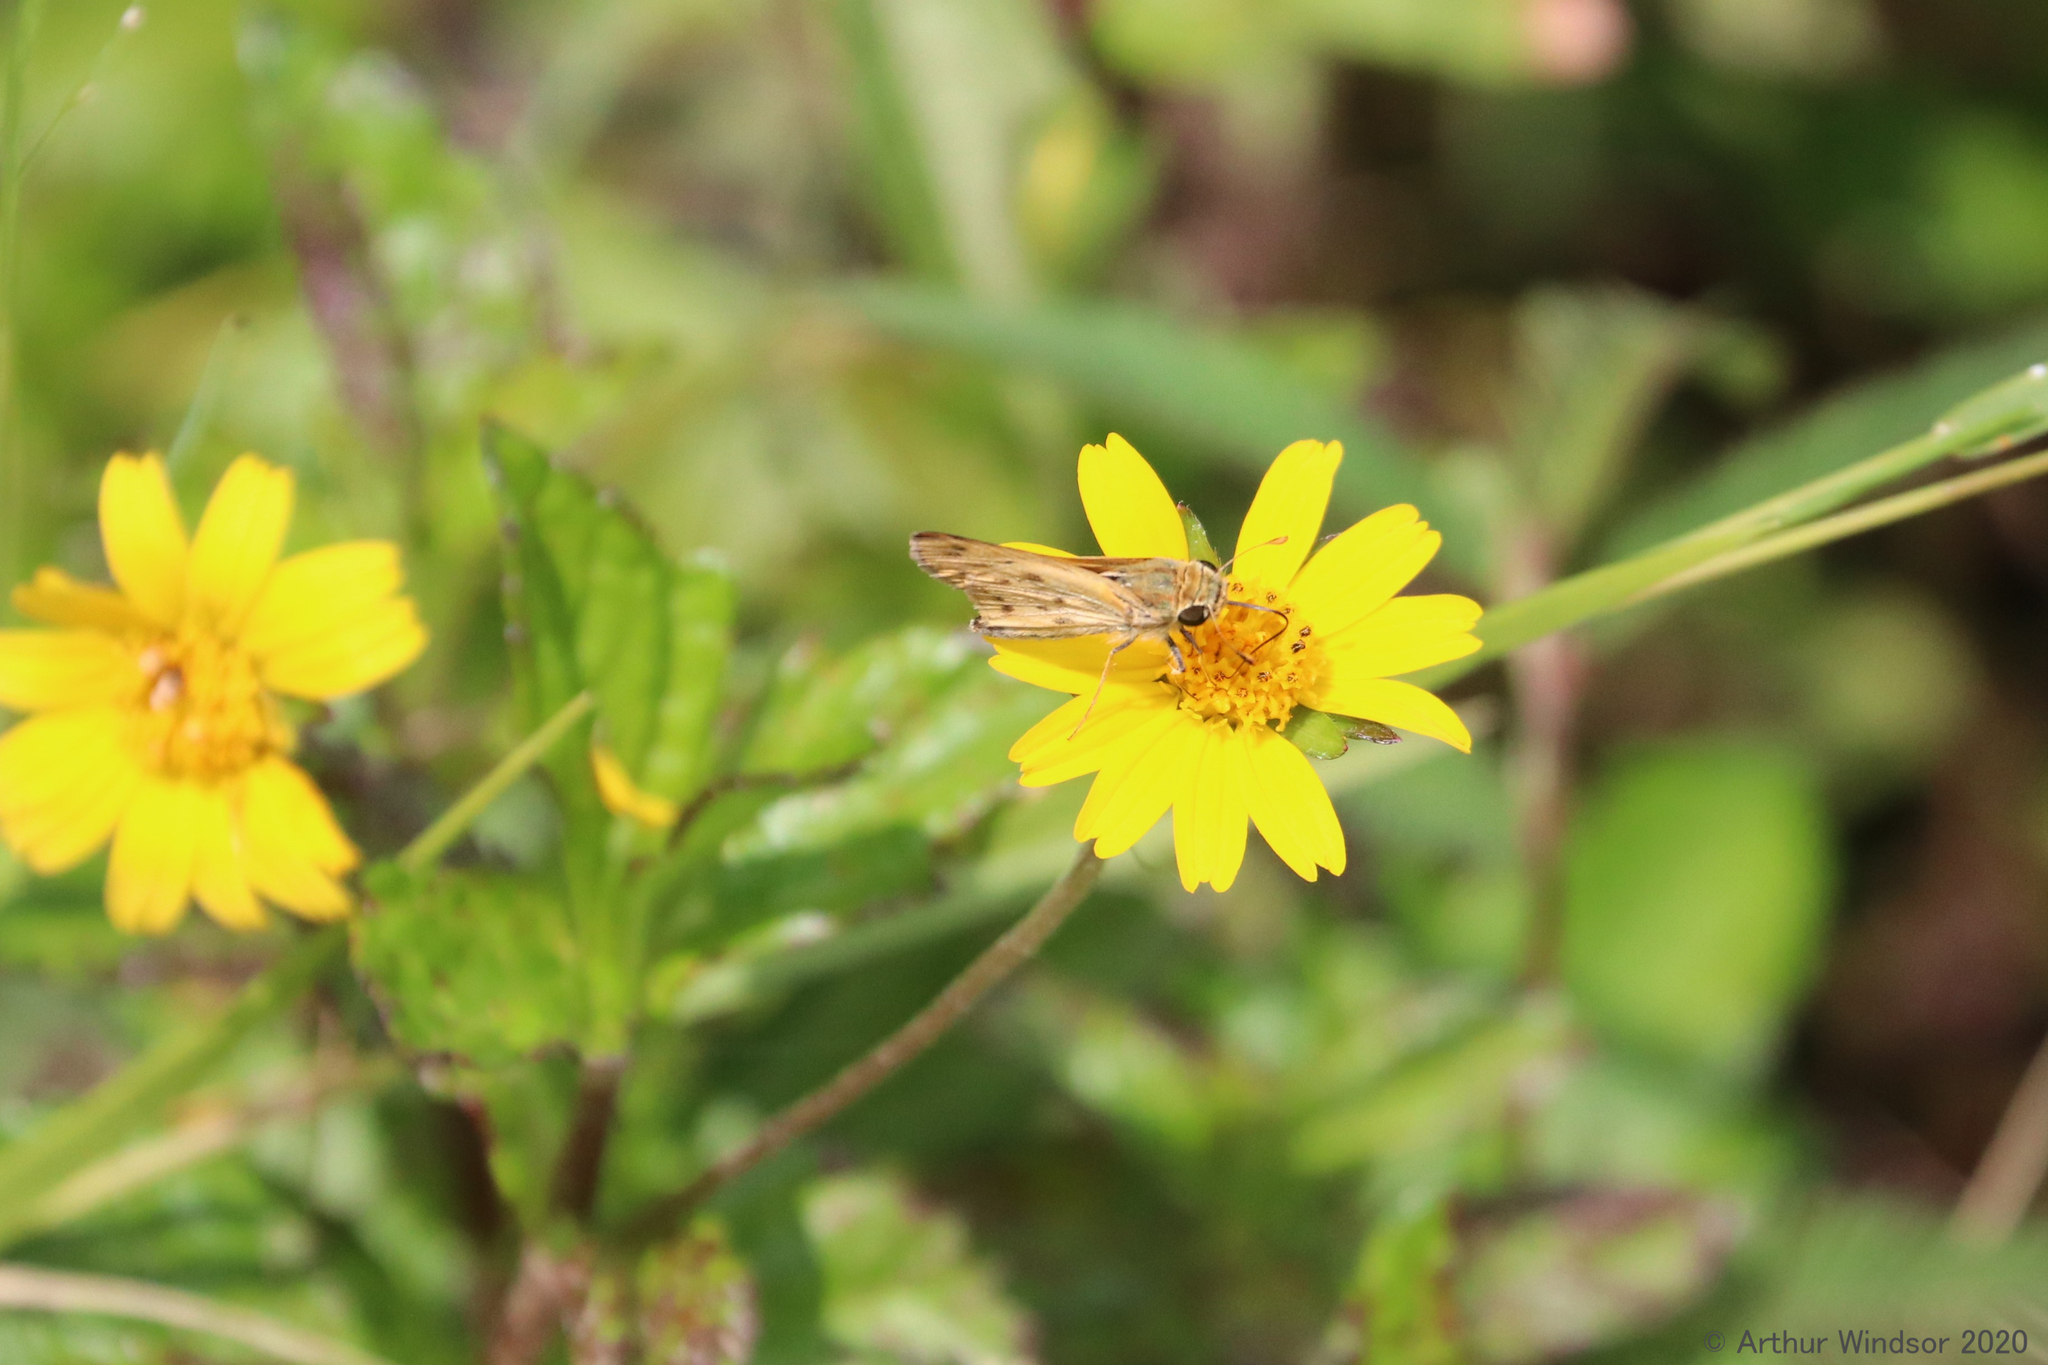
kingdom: Animalia
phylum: Arthropoda
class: Insecta
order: Lepidoptera
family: Hesperiidae
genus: Hylephila
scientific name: Hylephila phyleus
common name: Fiery skipper
